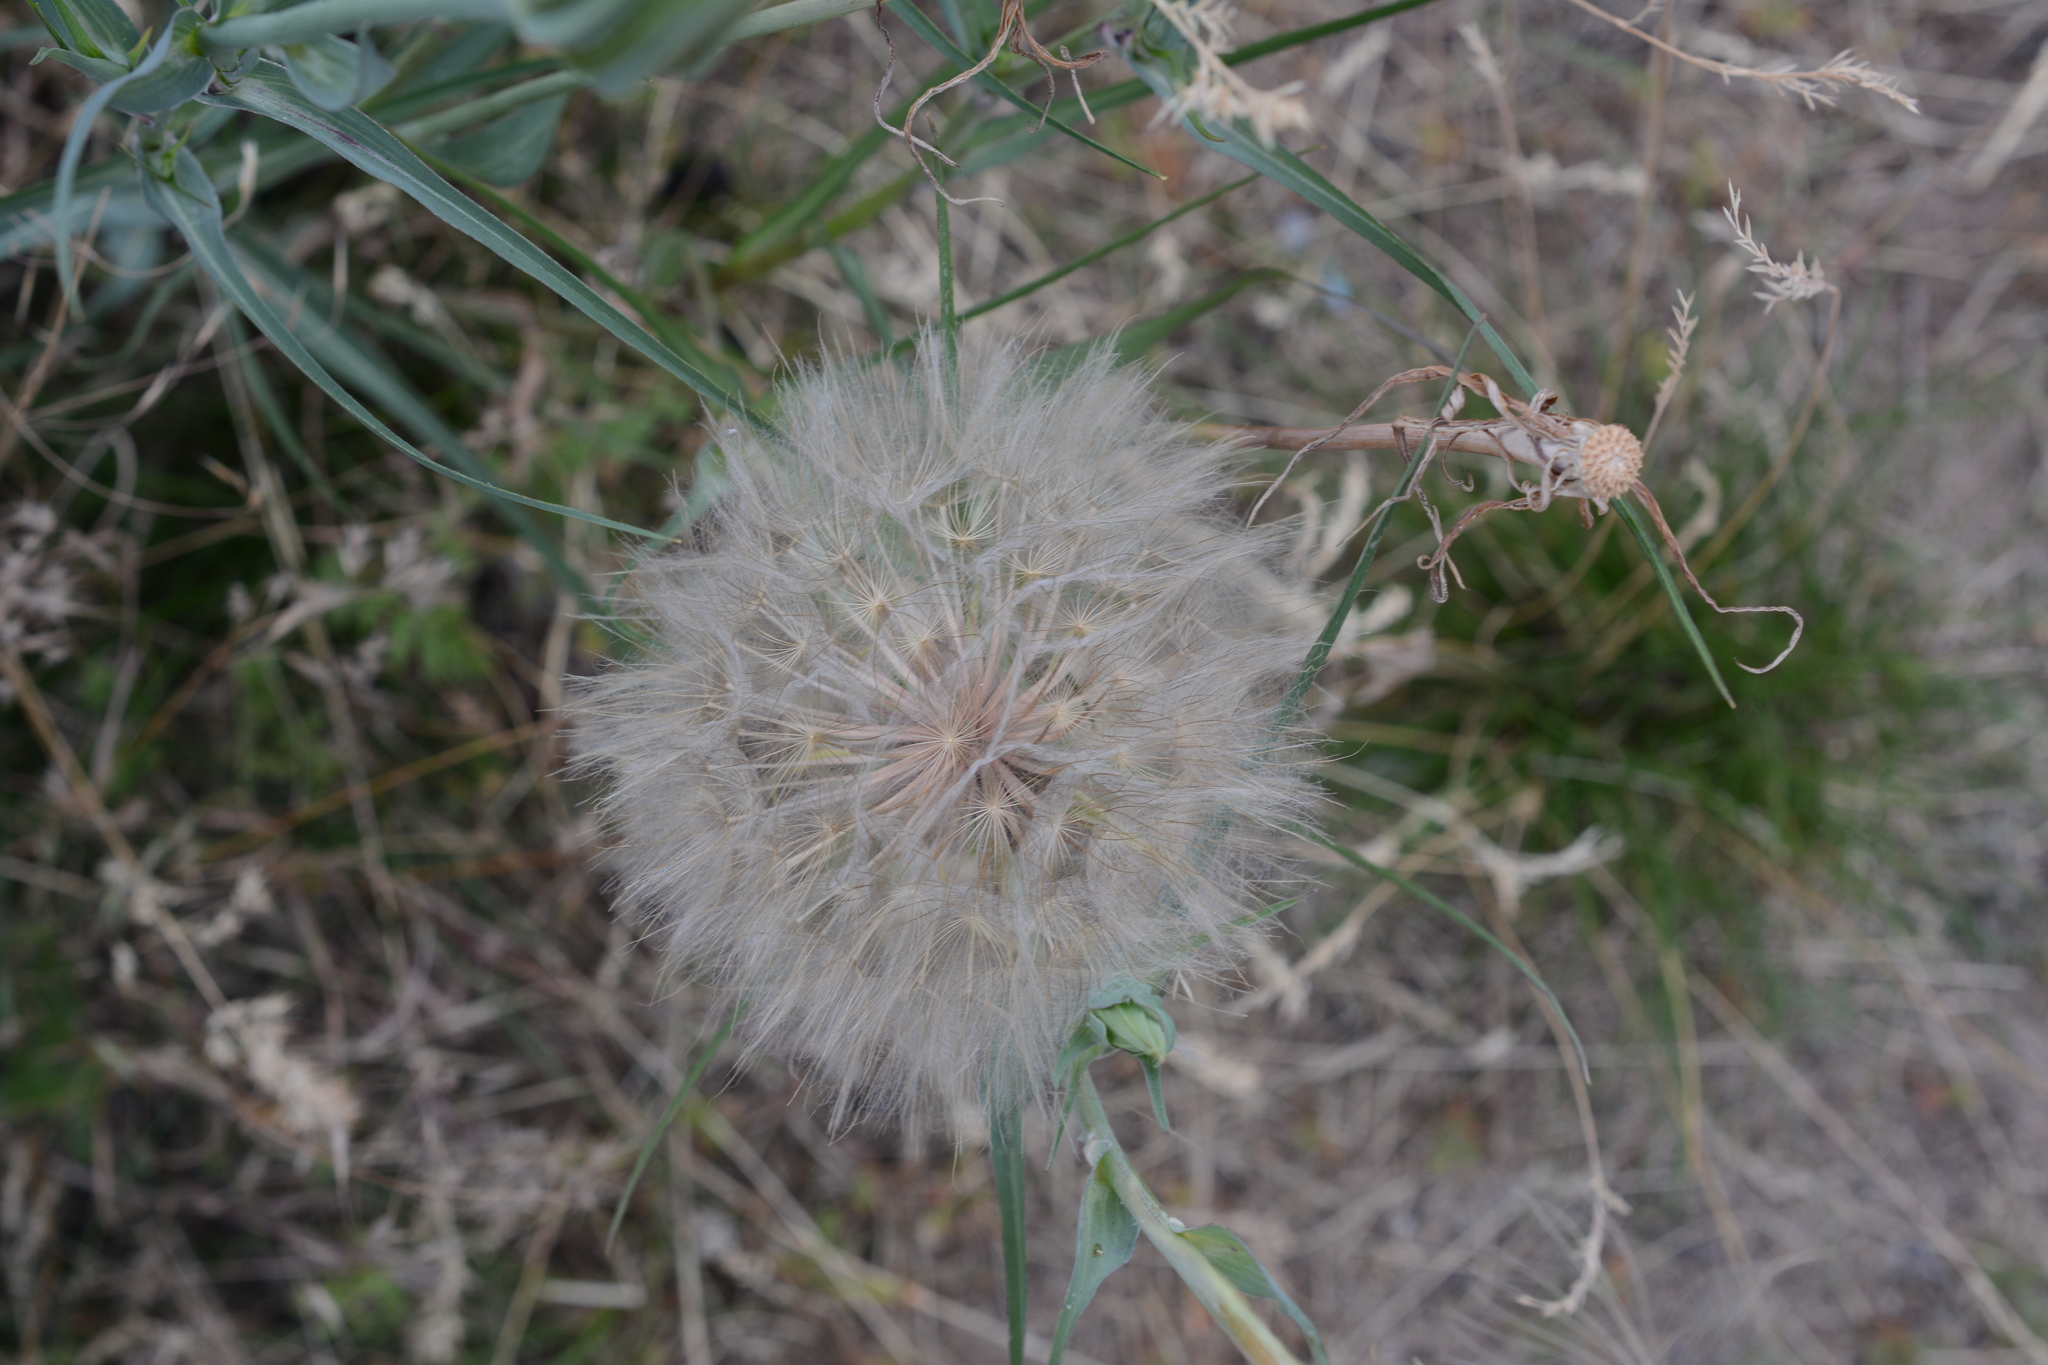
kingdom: Plantae
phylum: Tracheophyta
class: Magnoliopsida
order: Asterales
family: Asteraceae
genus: Tragopogon
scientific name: Tragopogon dubius
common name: Yellow salsify
